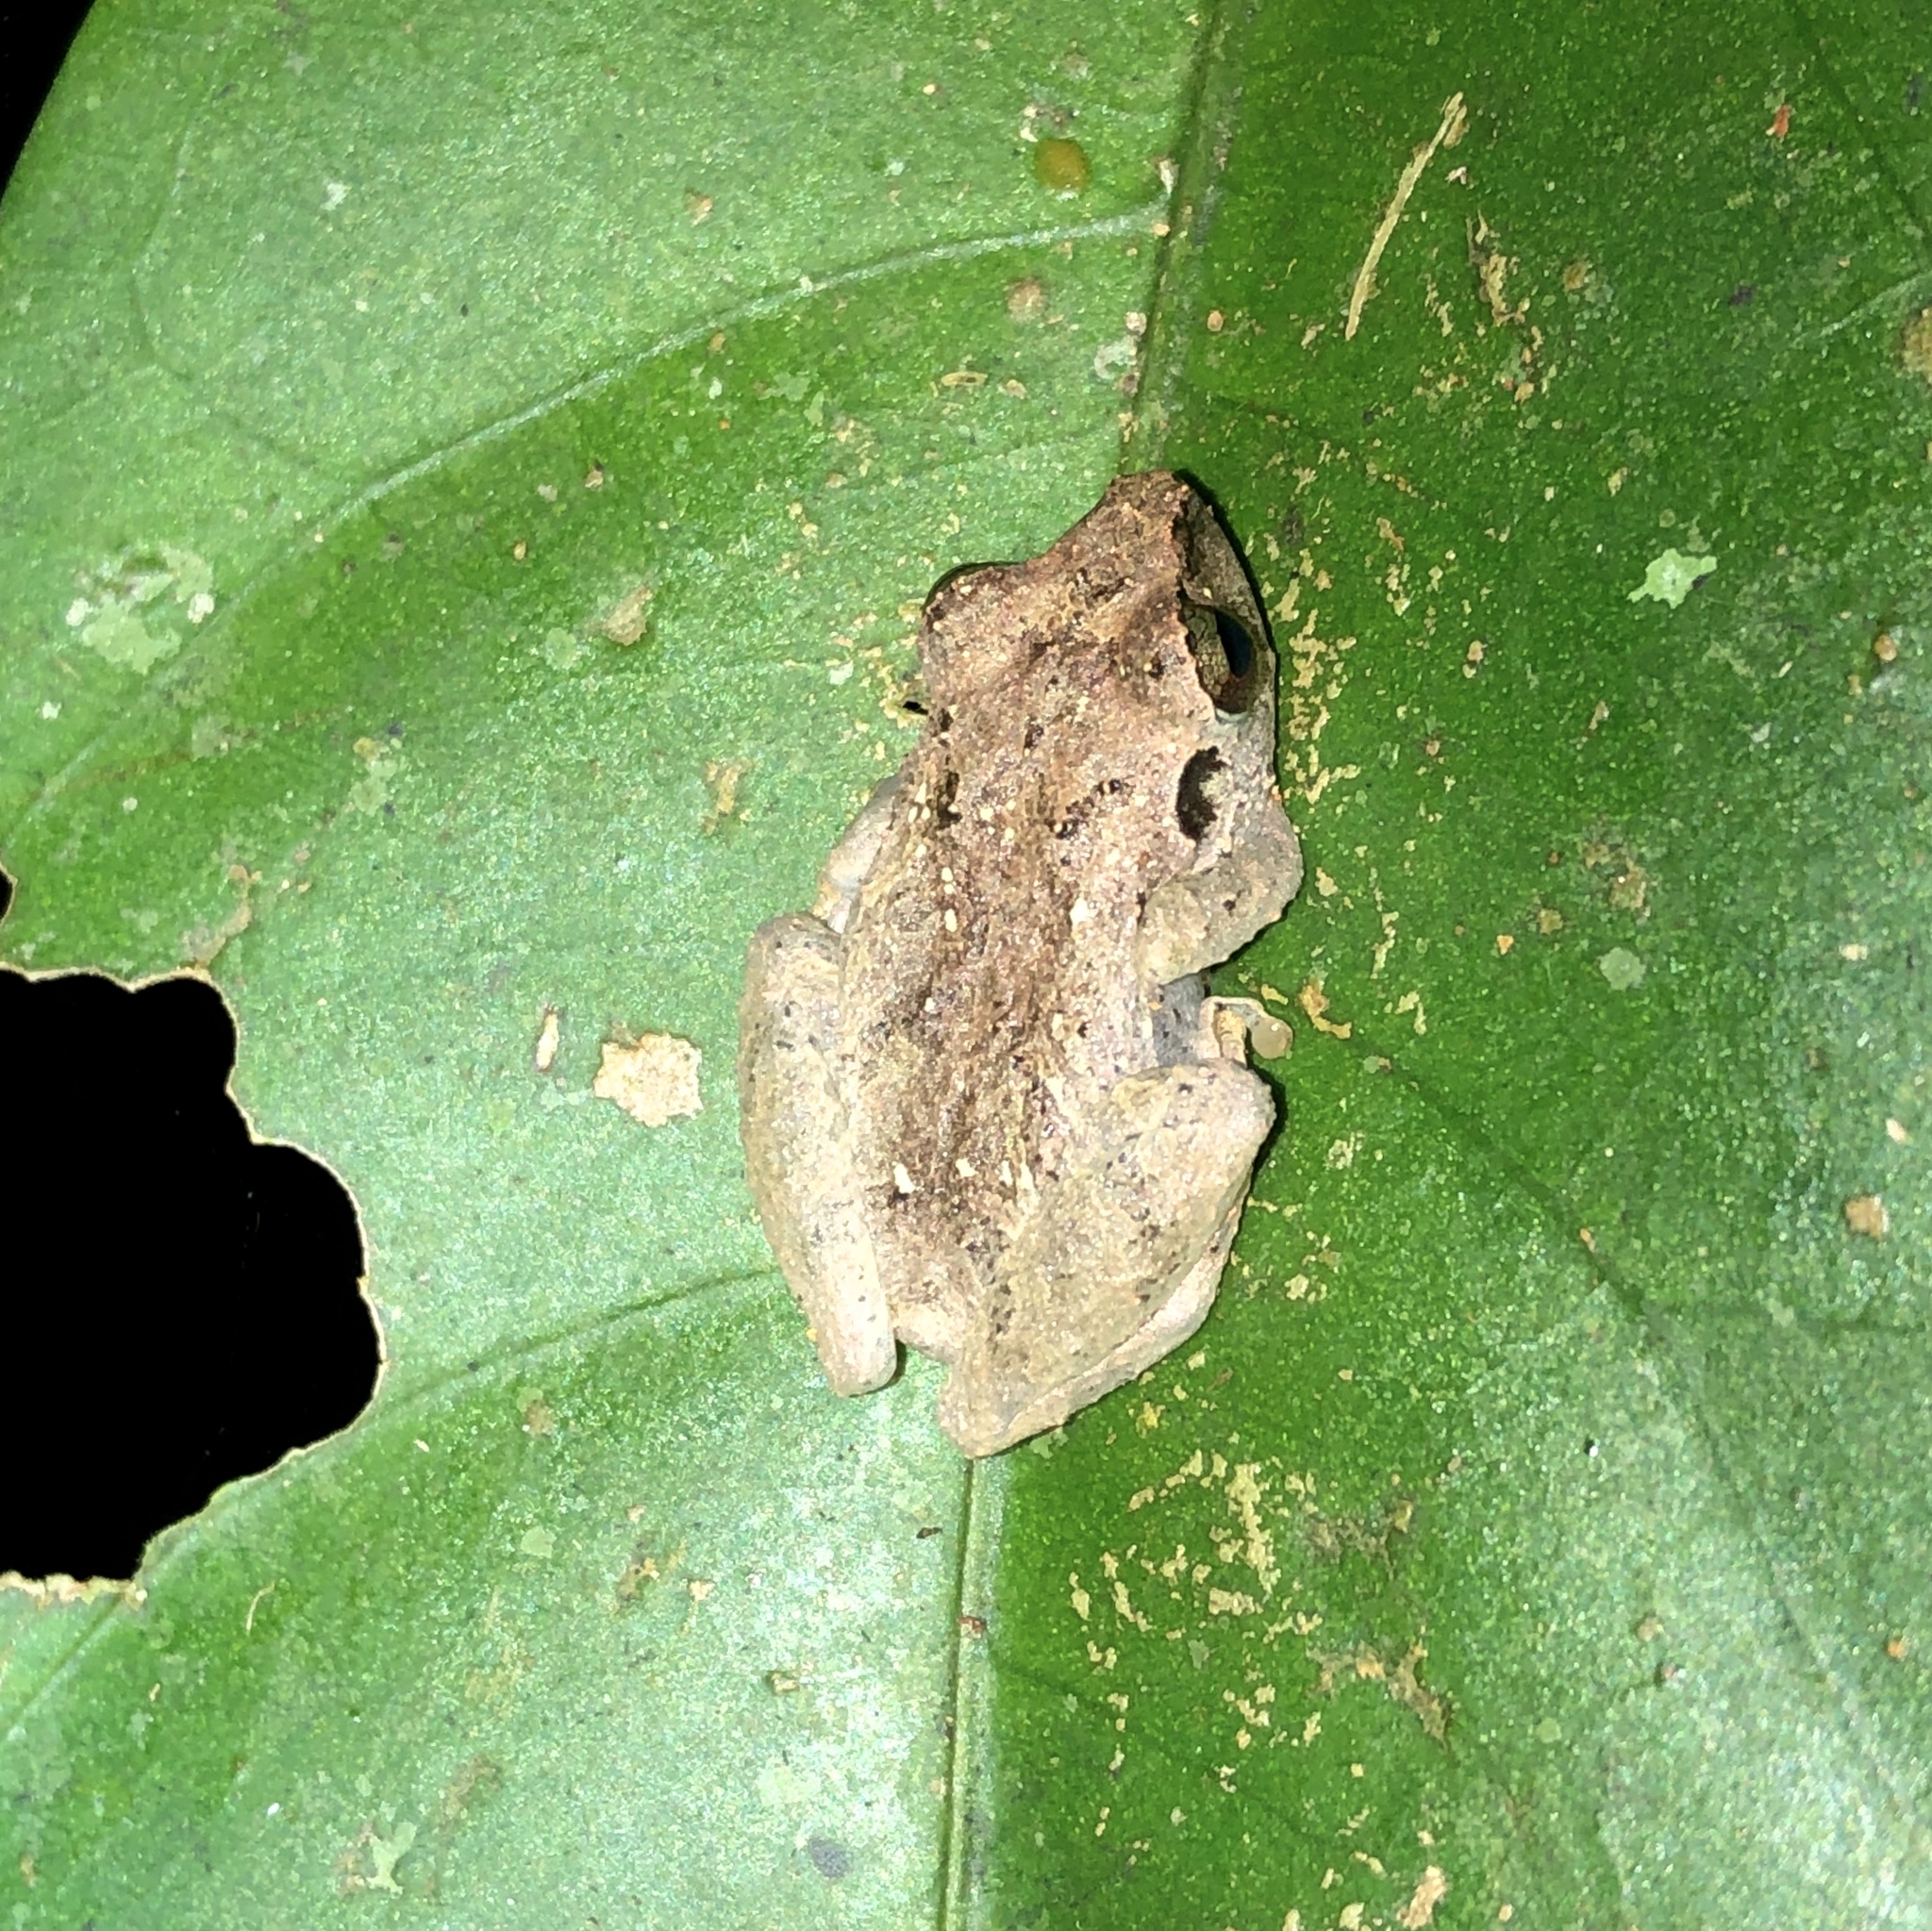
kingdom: Animalia
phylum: Chordata
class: Amphibia
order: Anura
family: Craugastoridae
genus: Pristimantis
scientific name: Pristimantis ridens
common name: Rio san juan robber frog
